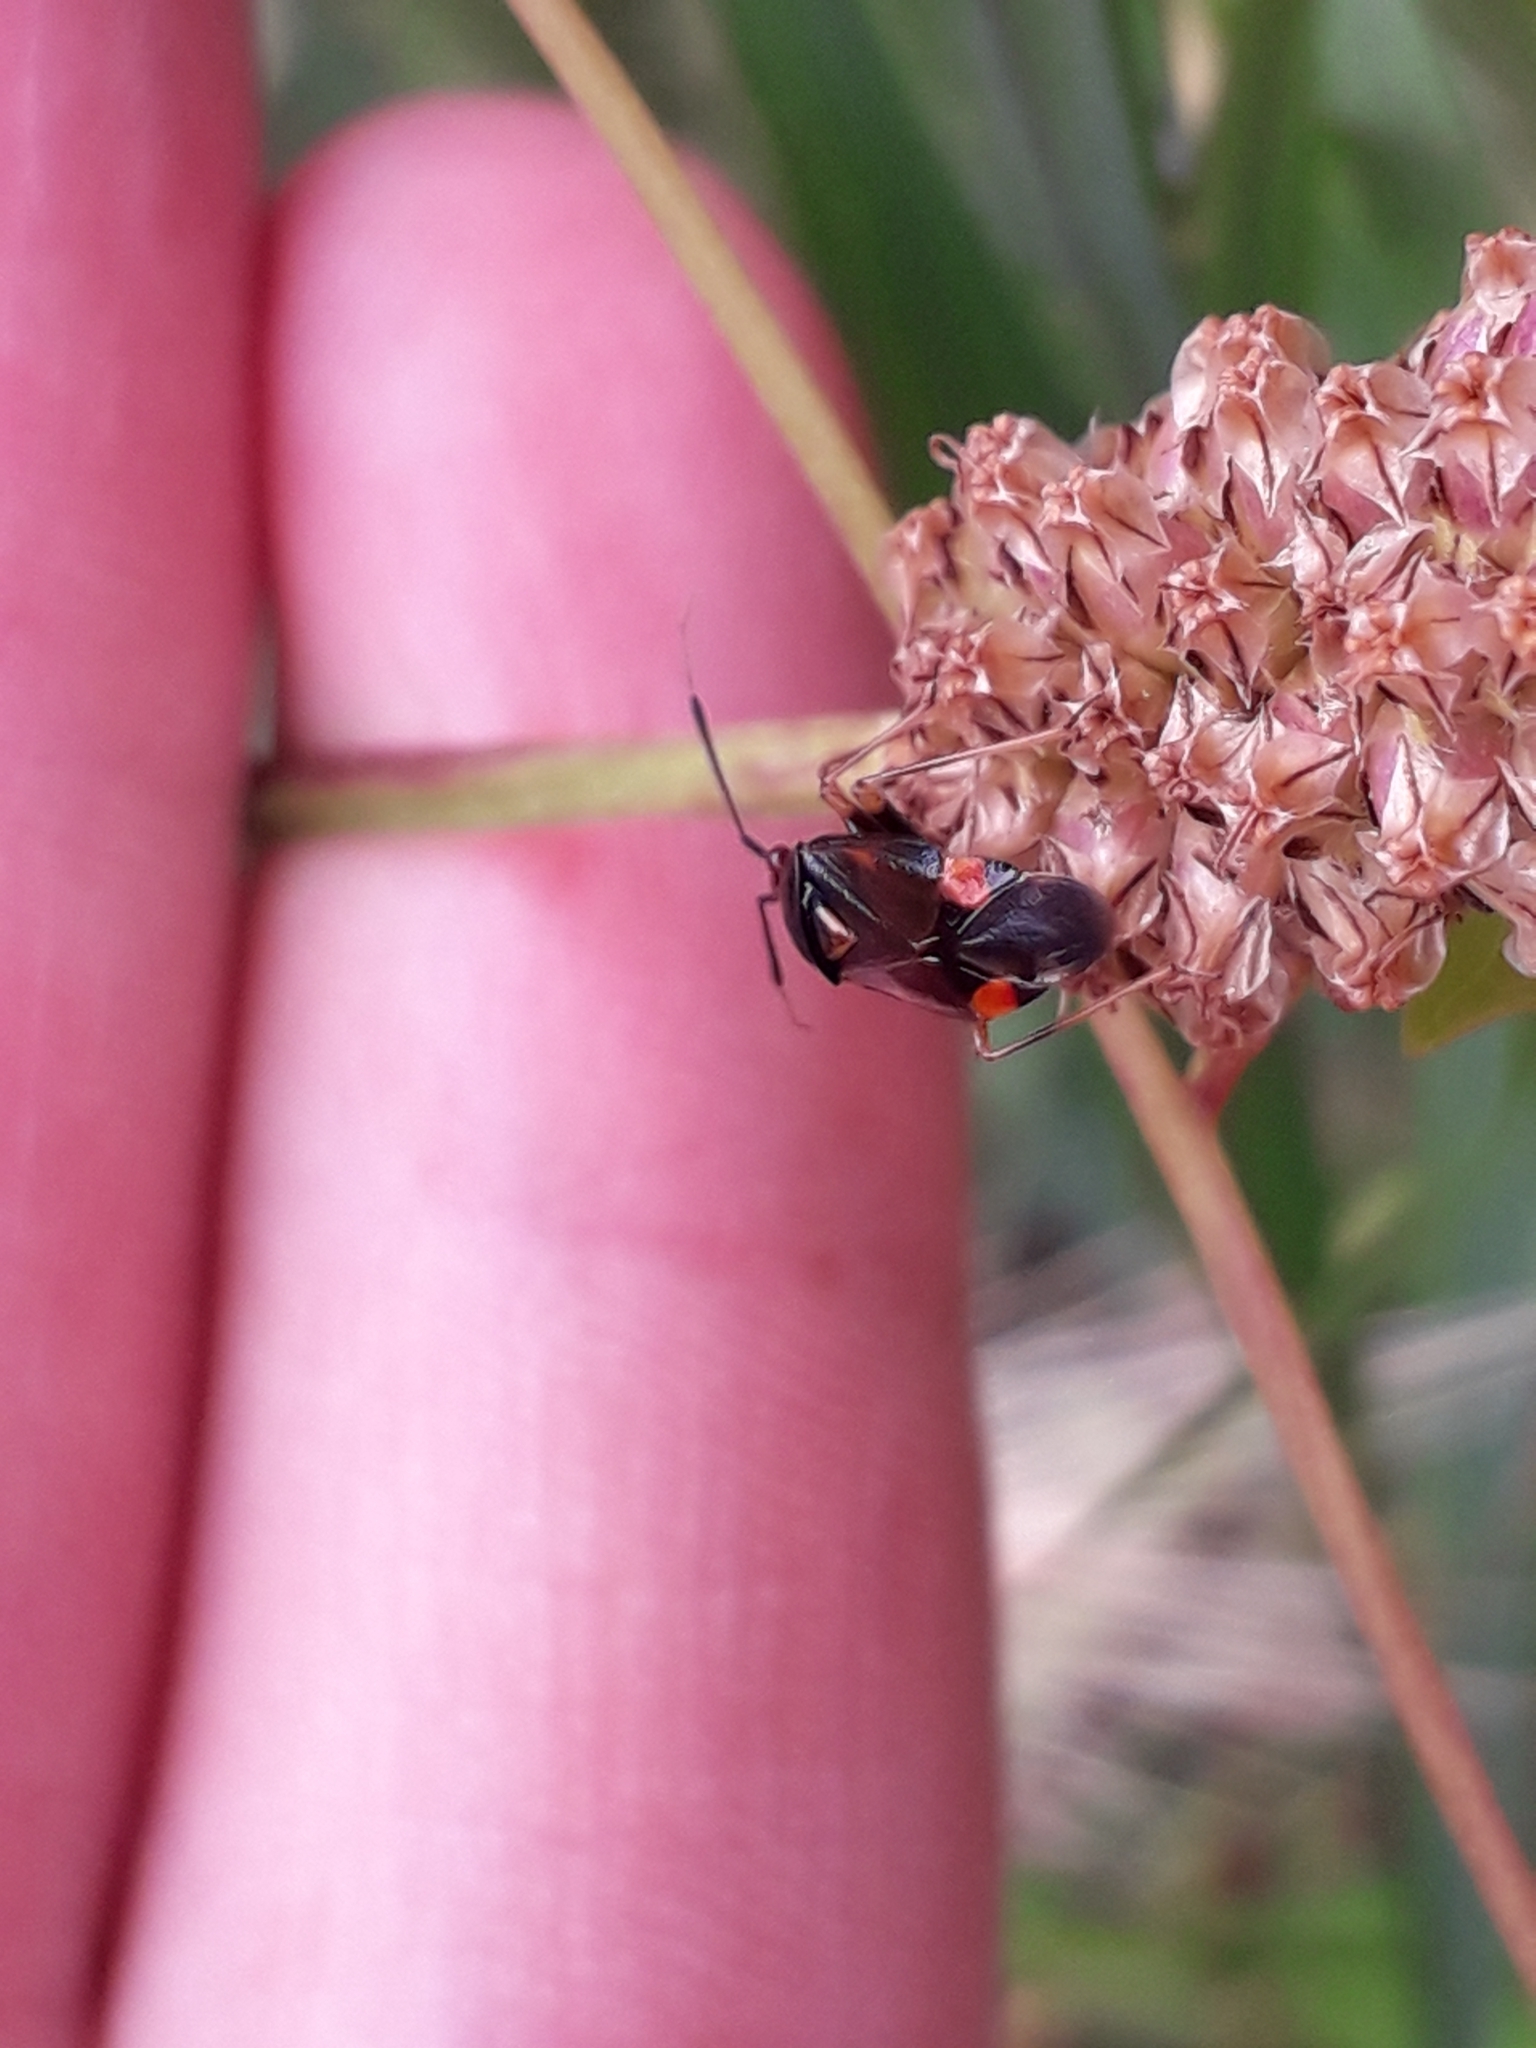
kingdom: Animalia
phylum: Arthropoda
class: Insecta
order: Hemiptera
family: Miridae
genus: Deraeocoris
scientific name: Deraeocoris ruber
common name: Plant bug
